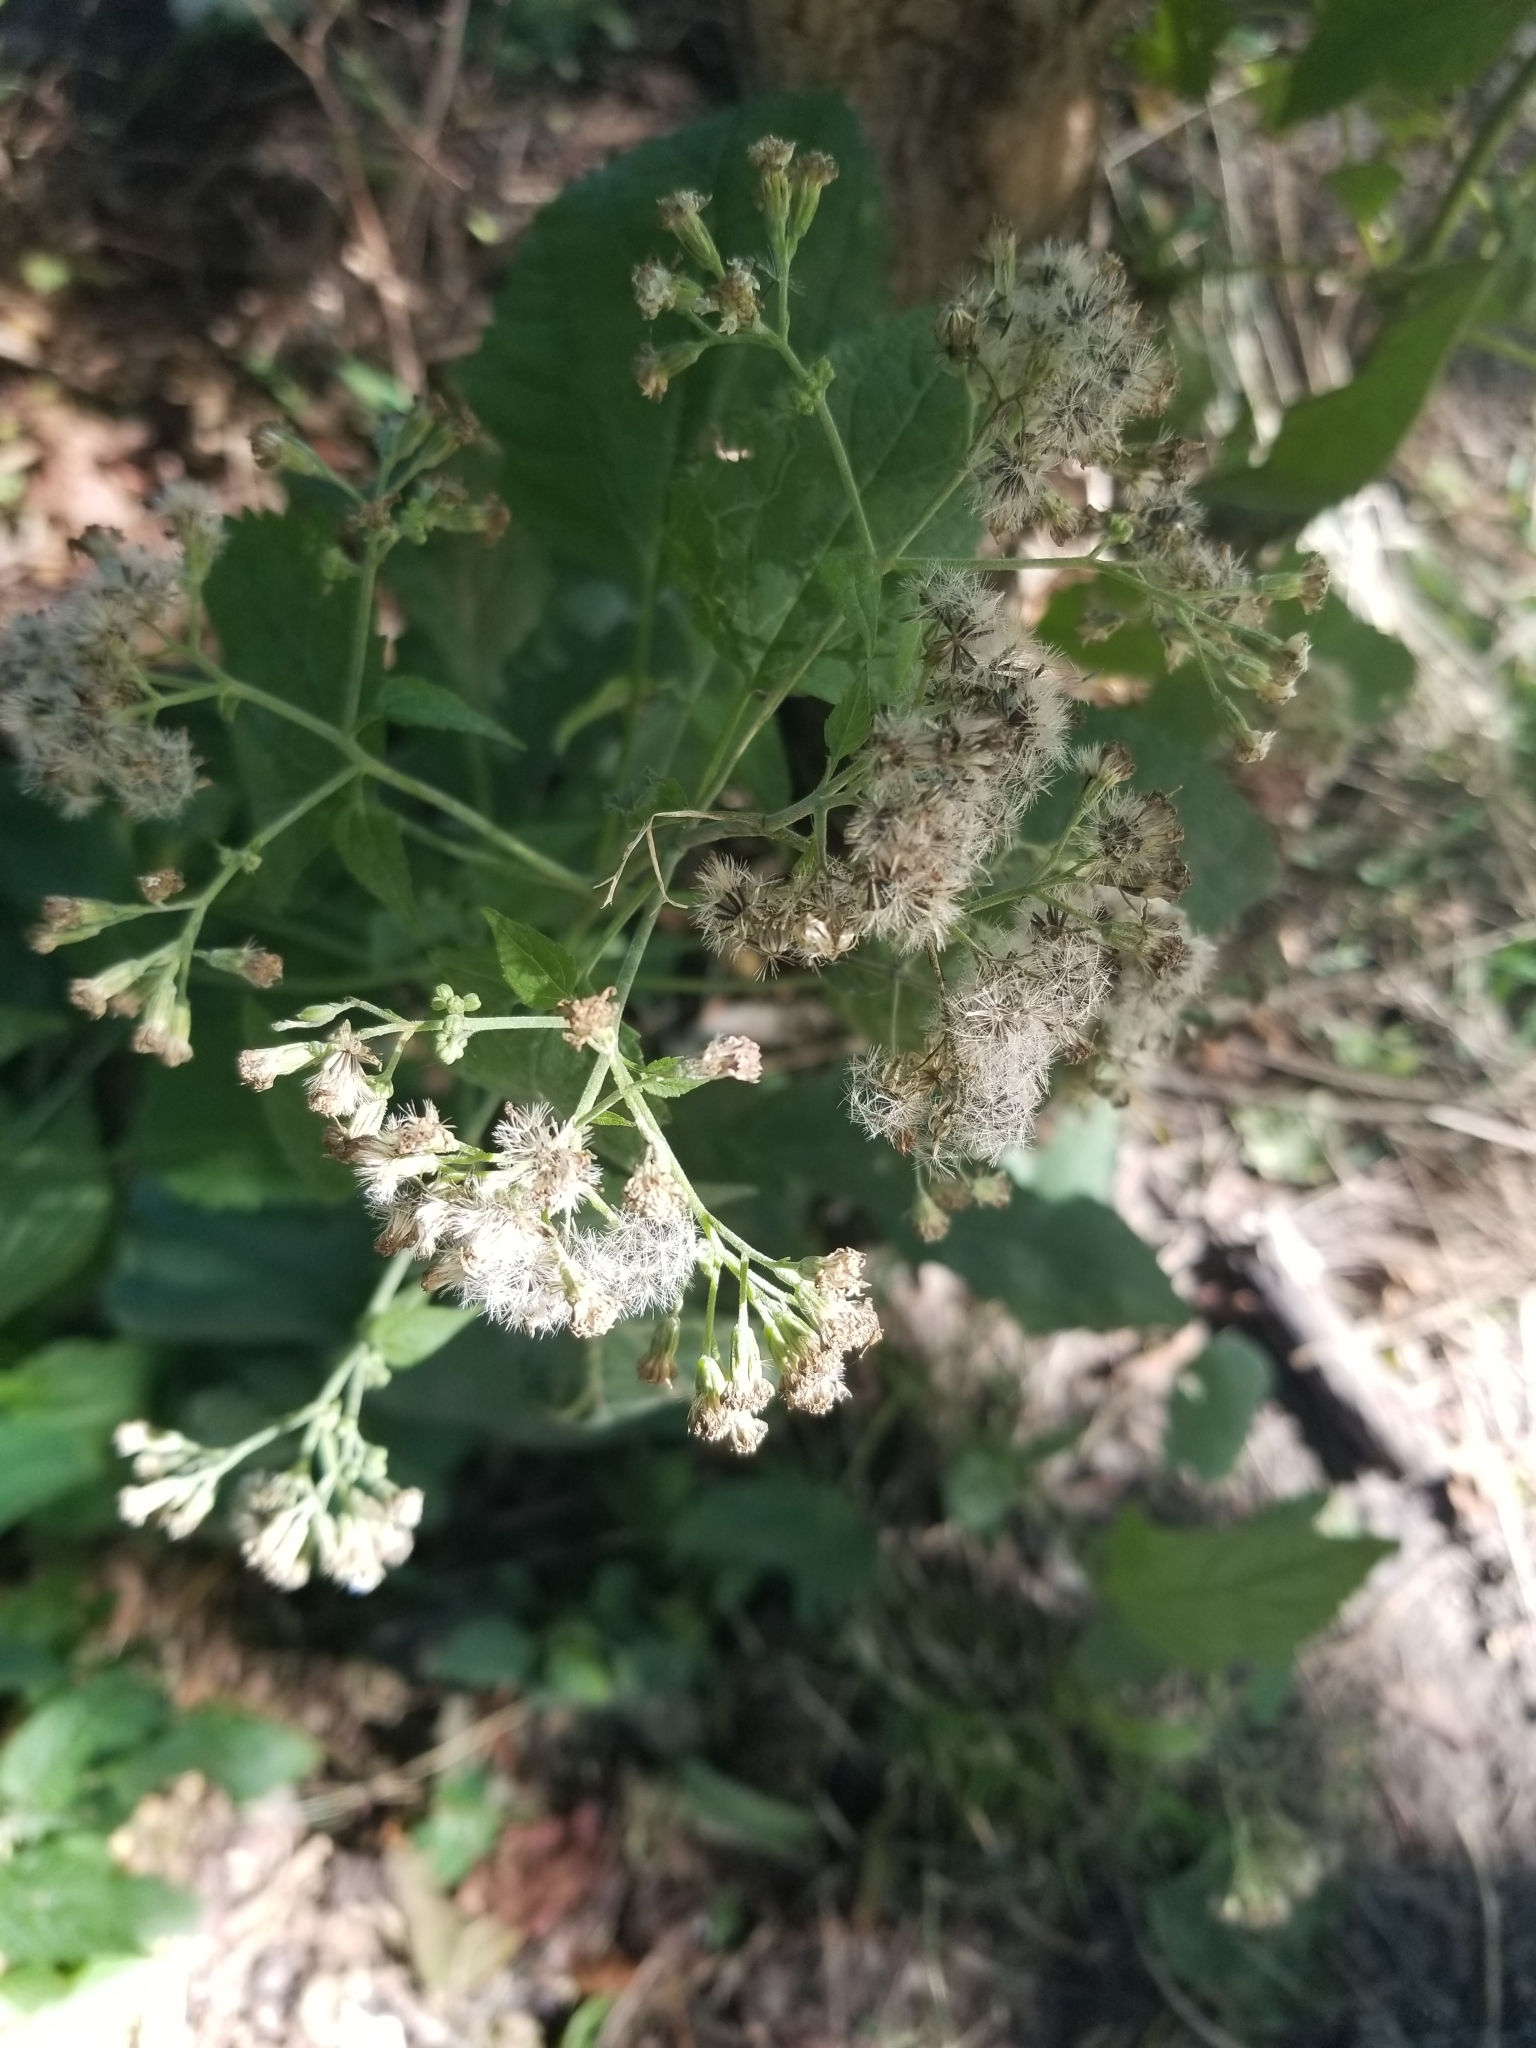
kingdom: Plantae
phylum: Tracheophyta
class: Magnoliopsida
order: Asterales
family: Asteraceae
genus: Ageratina
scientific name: Ageratina altissima
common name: White snakeroot
